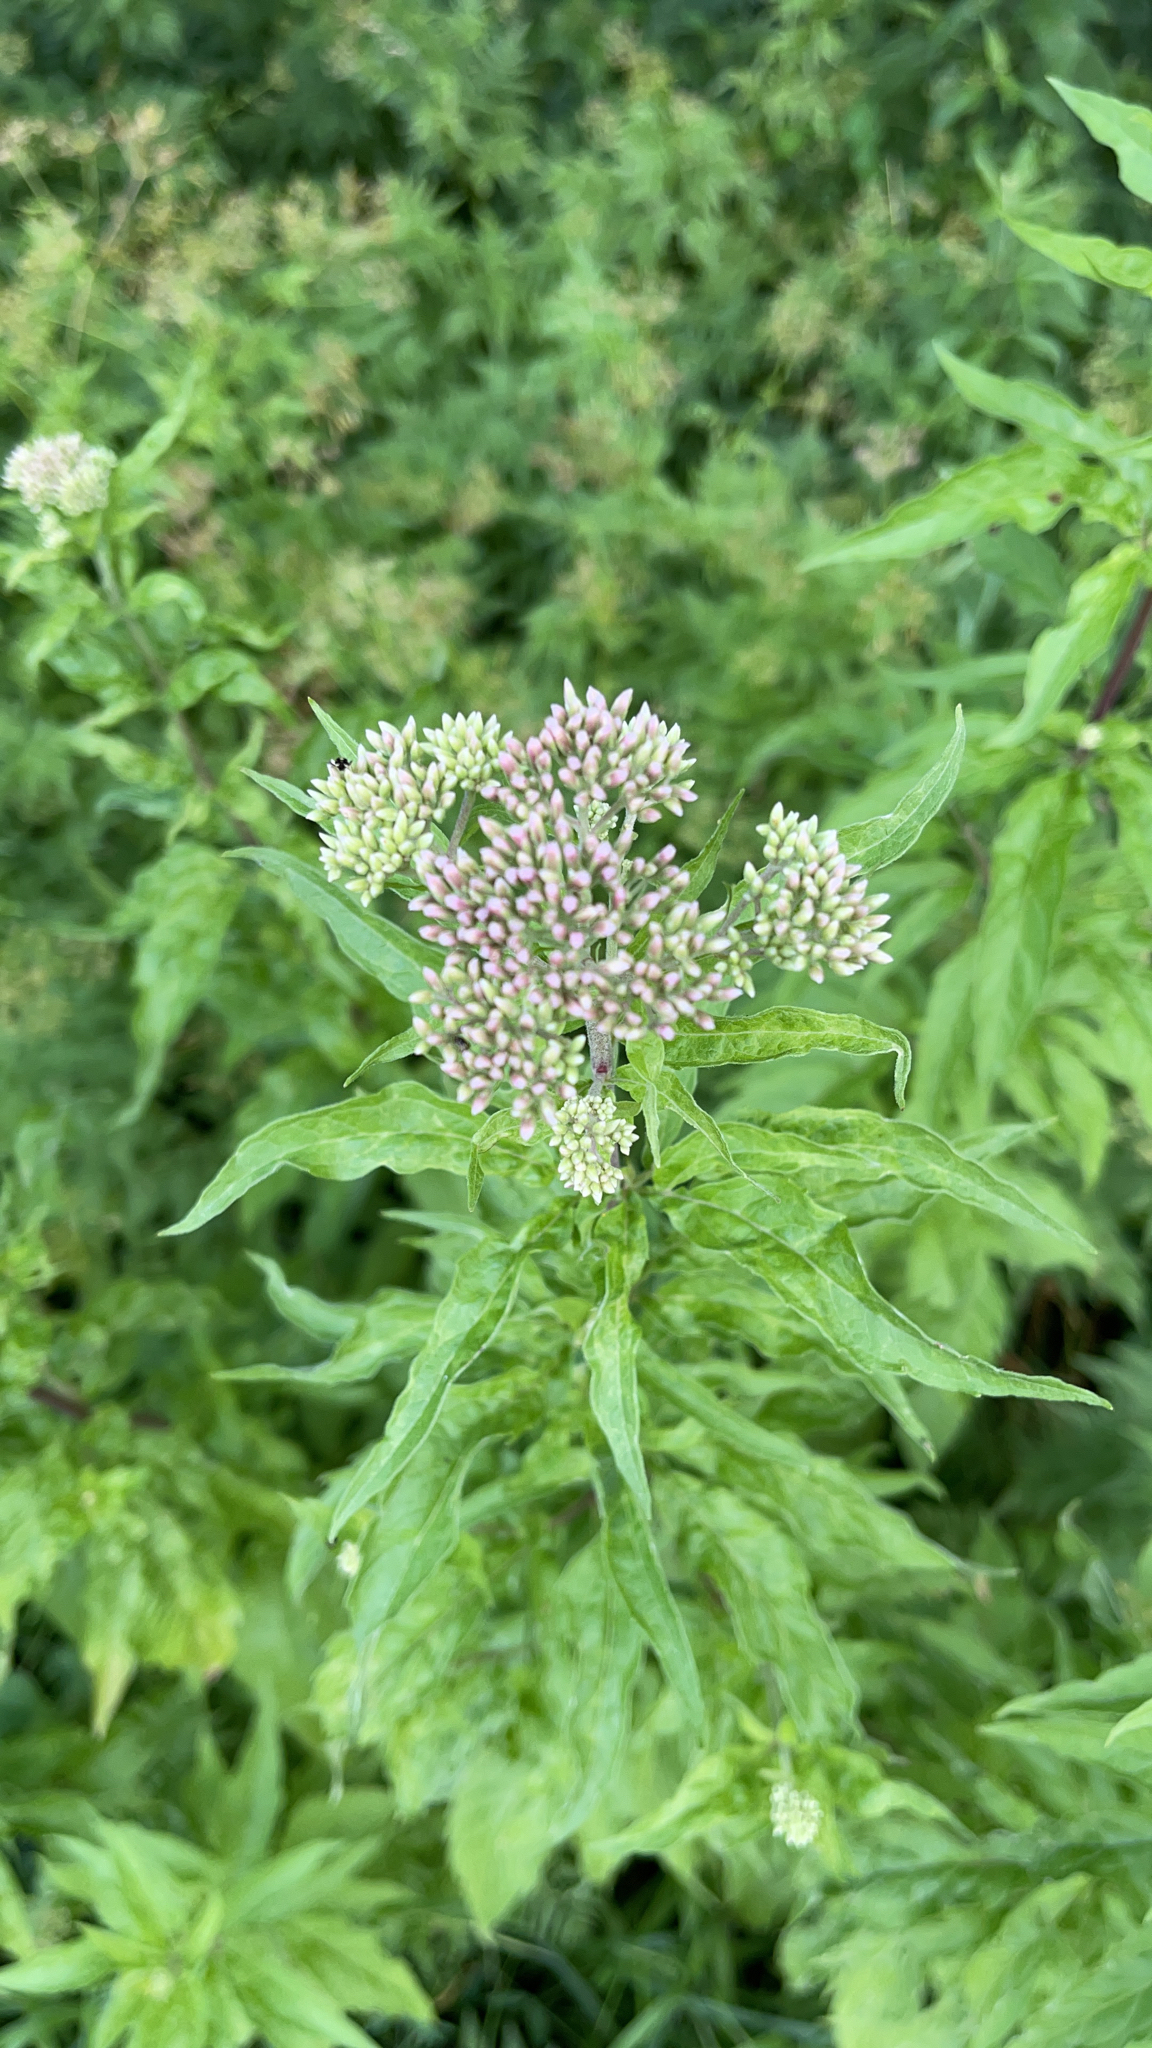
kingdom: Plantae
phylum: Tracheophyta
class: Magnoliopsida
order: Asterales
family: Asteraceae
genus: Eupatorium
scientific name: Eupatorium cannabinum
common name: Hemp-agrimony
